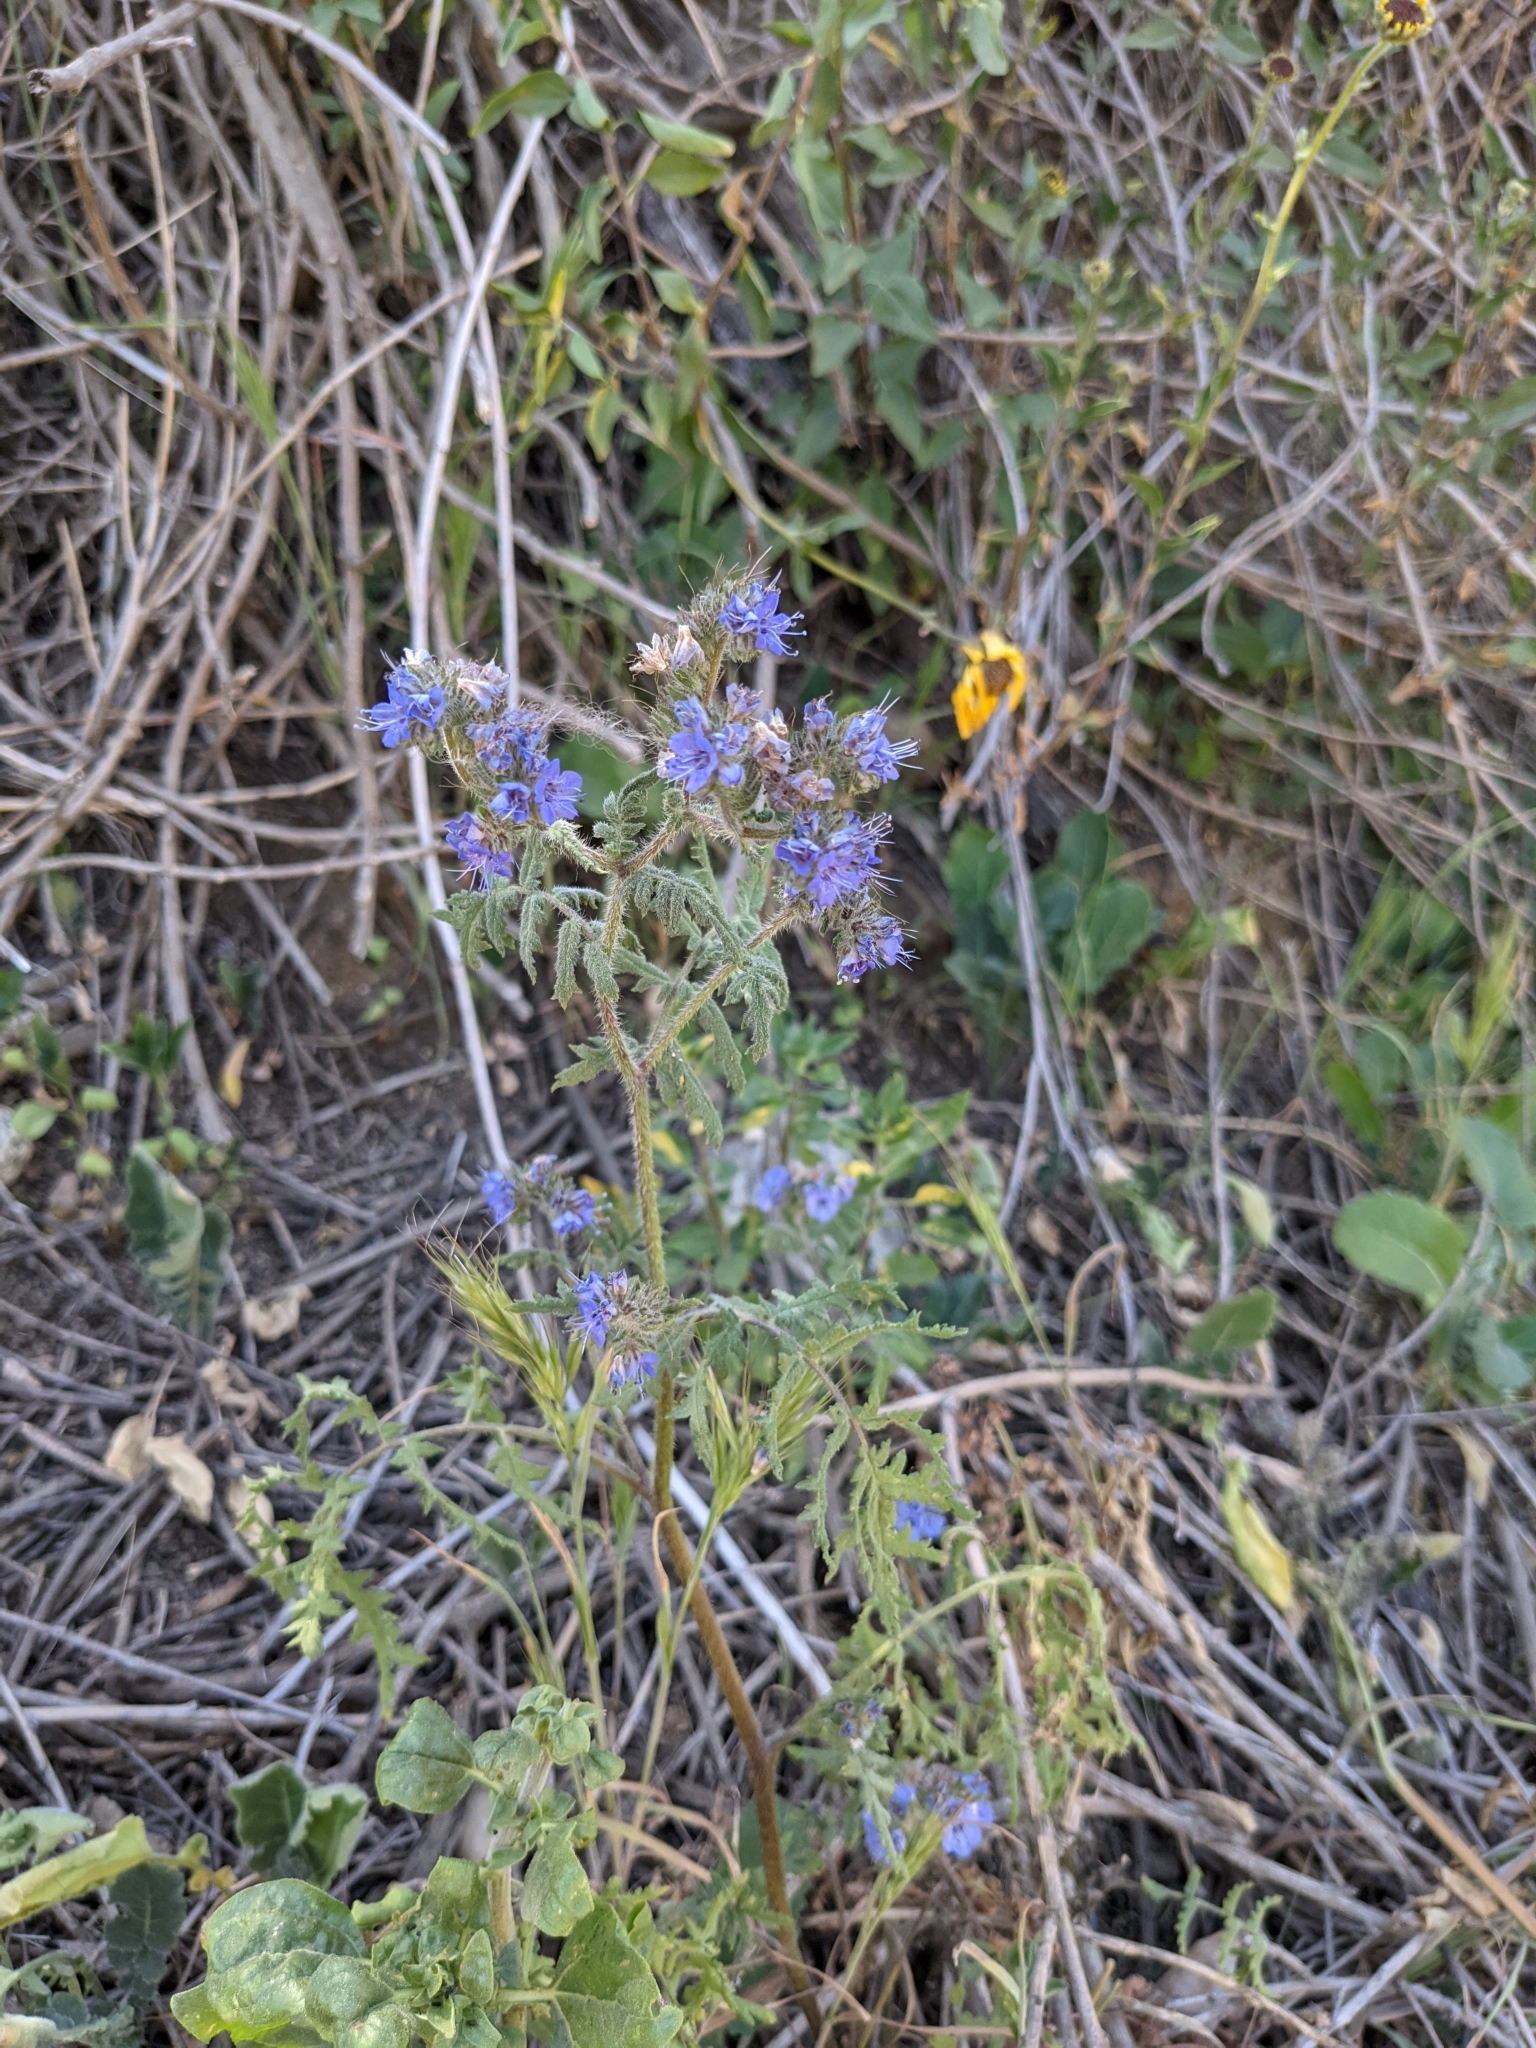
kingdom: Plantae
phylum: Tracheophyta
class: Magnoliopsida
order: Boraginales
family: Hydrophyllaceae
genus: Phacelia
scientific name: Phacelia distans
